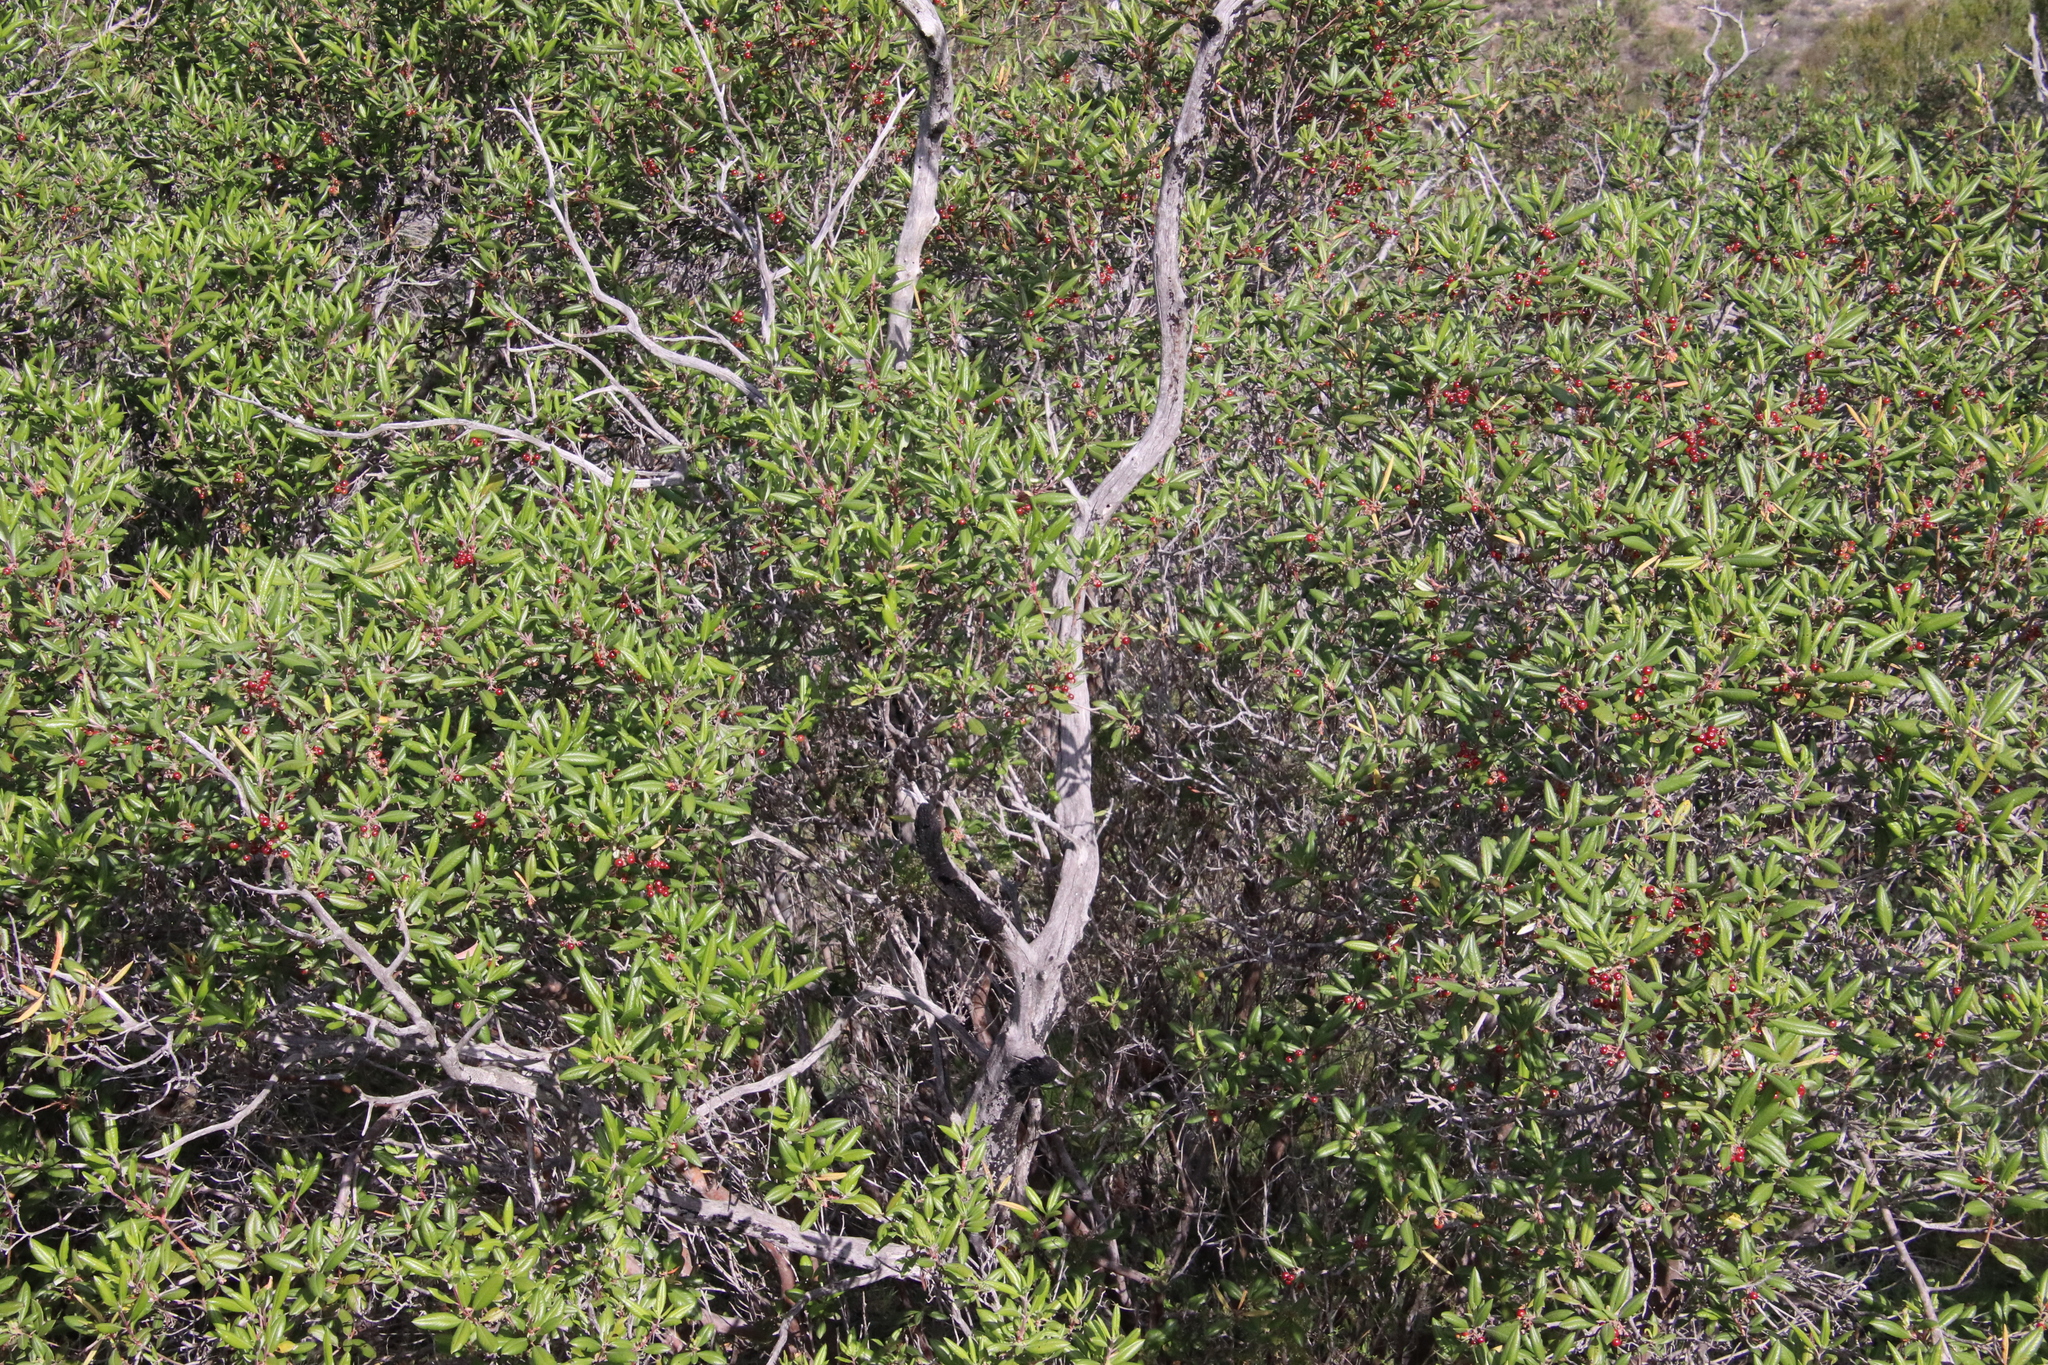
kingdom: Plantae
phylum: Tracheophyta
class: Magnoliopsida
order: Ericales
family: Ericaceae
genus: Arctostaphylos
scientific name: Arctostaphylos bicolor
